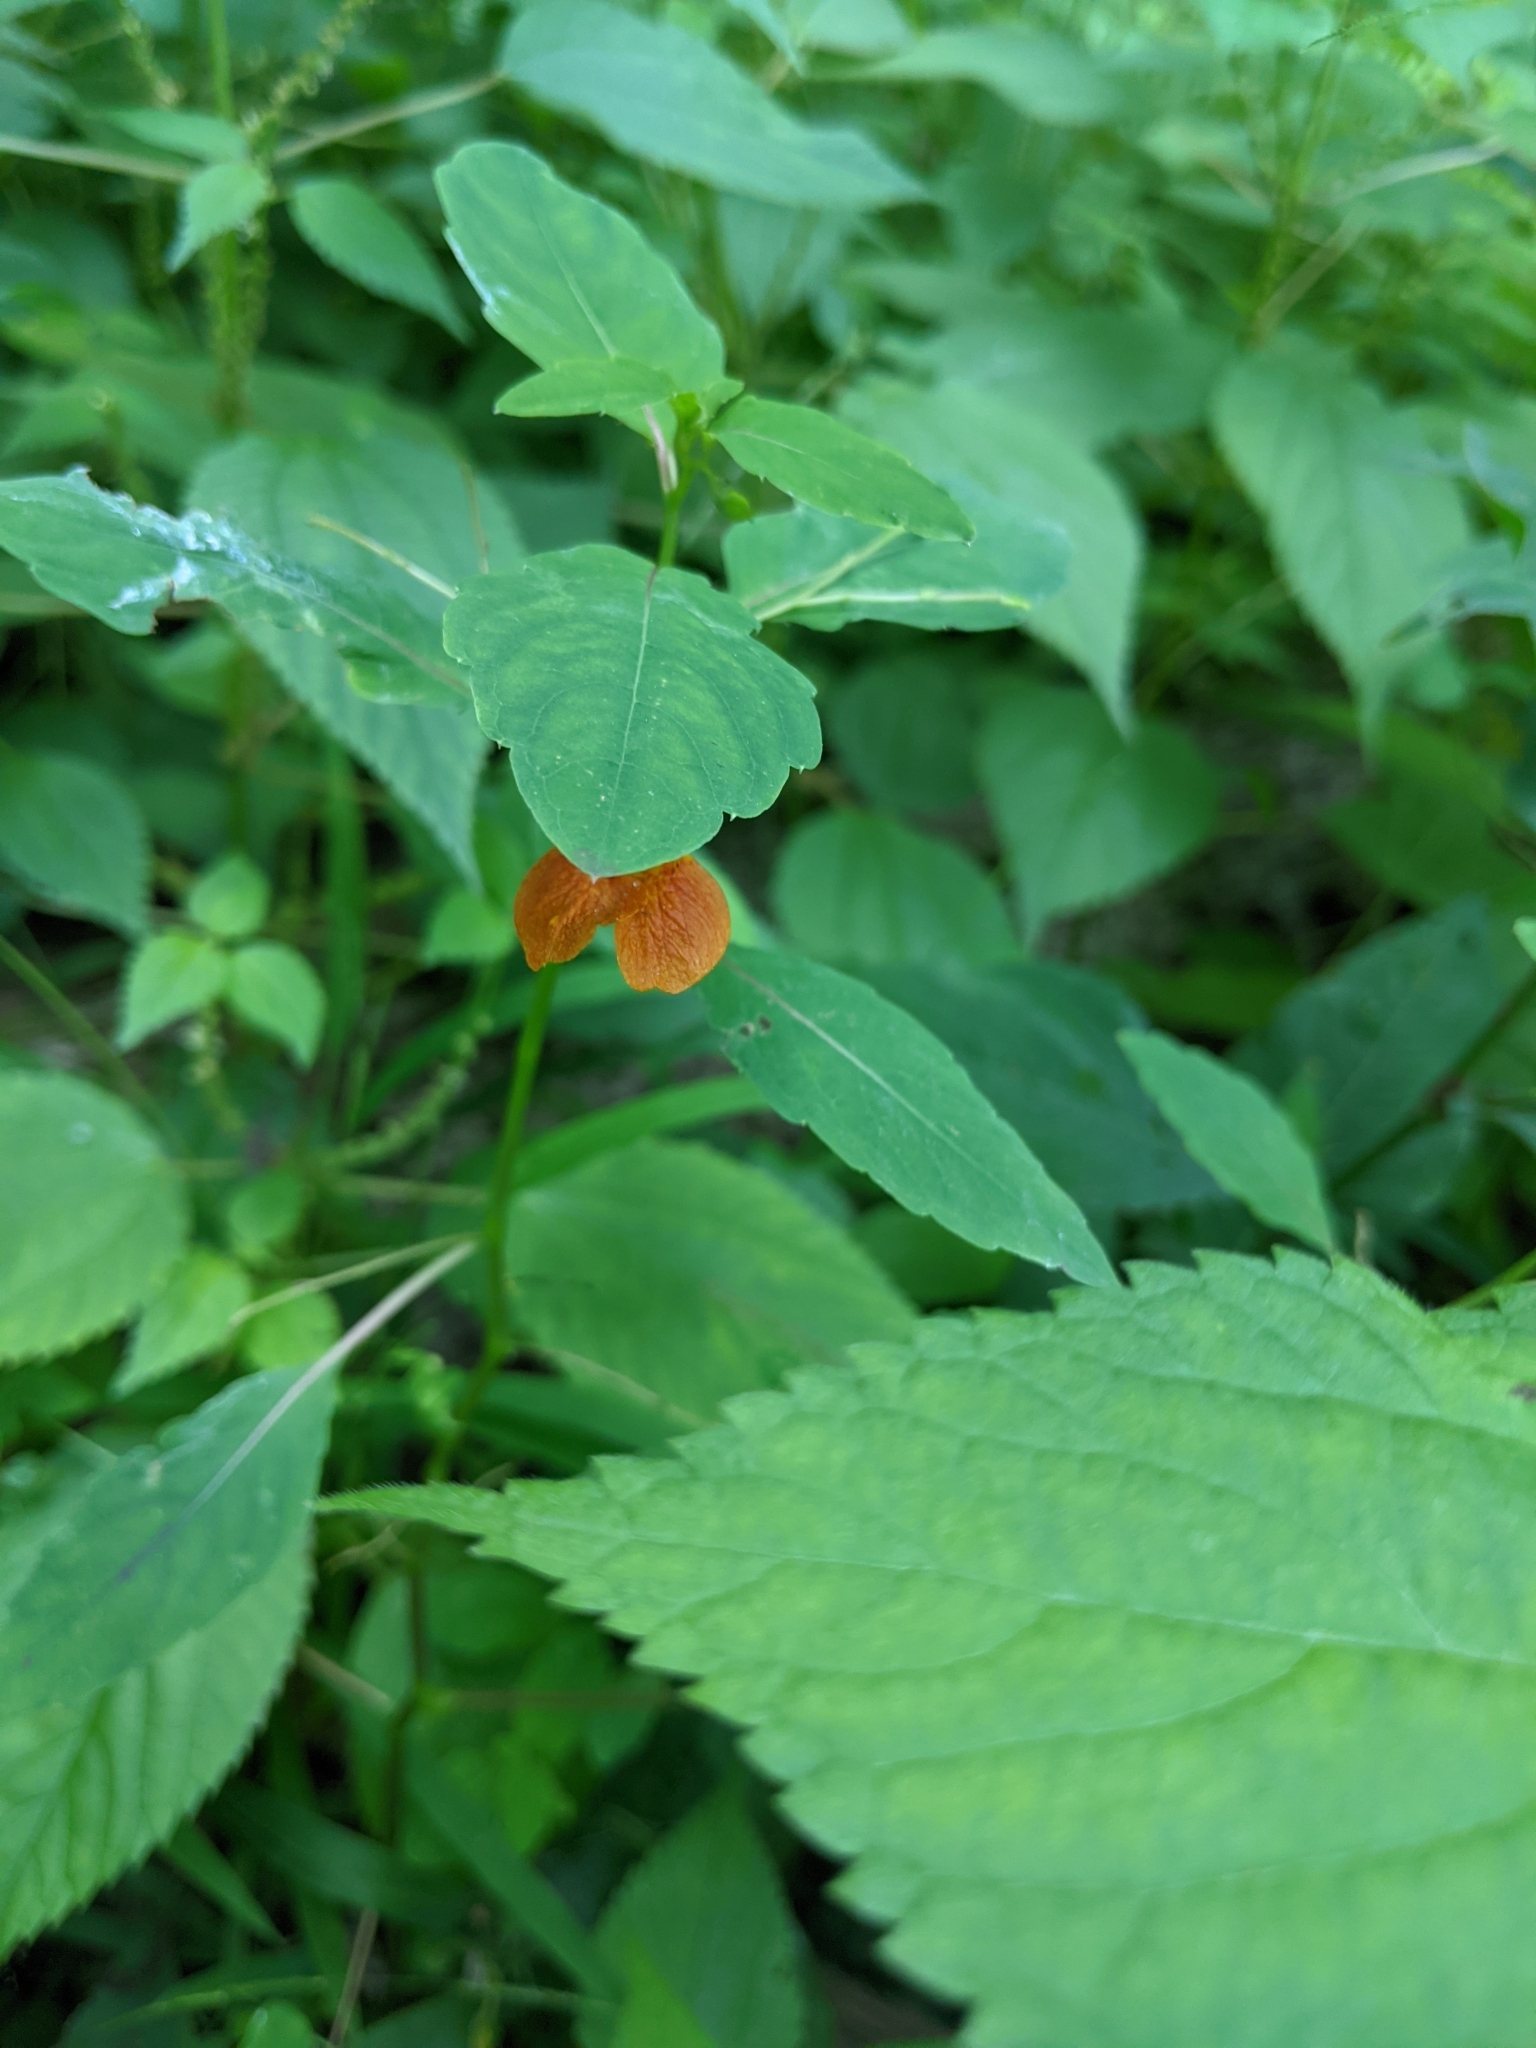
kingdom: Plantae
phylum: Tracheophyta
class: Magnoliopsida
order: Ericales
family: Balsaminaceae
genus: Impatiens
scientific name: Impatiens capensis
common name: Orange balsam
